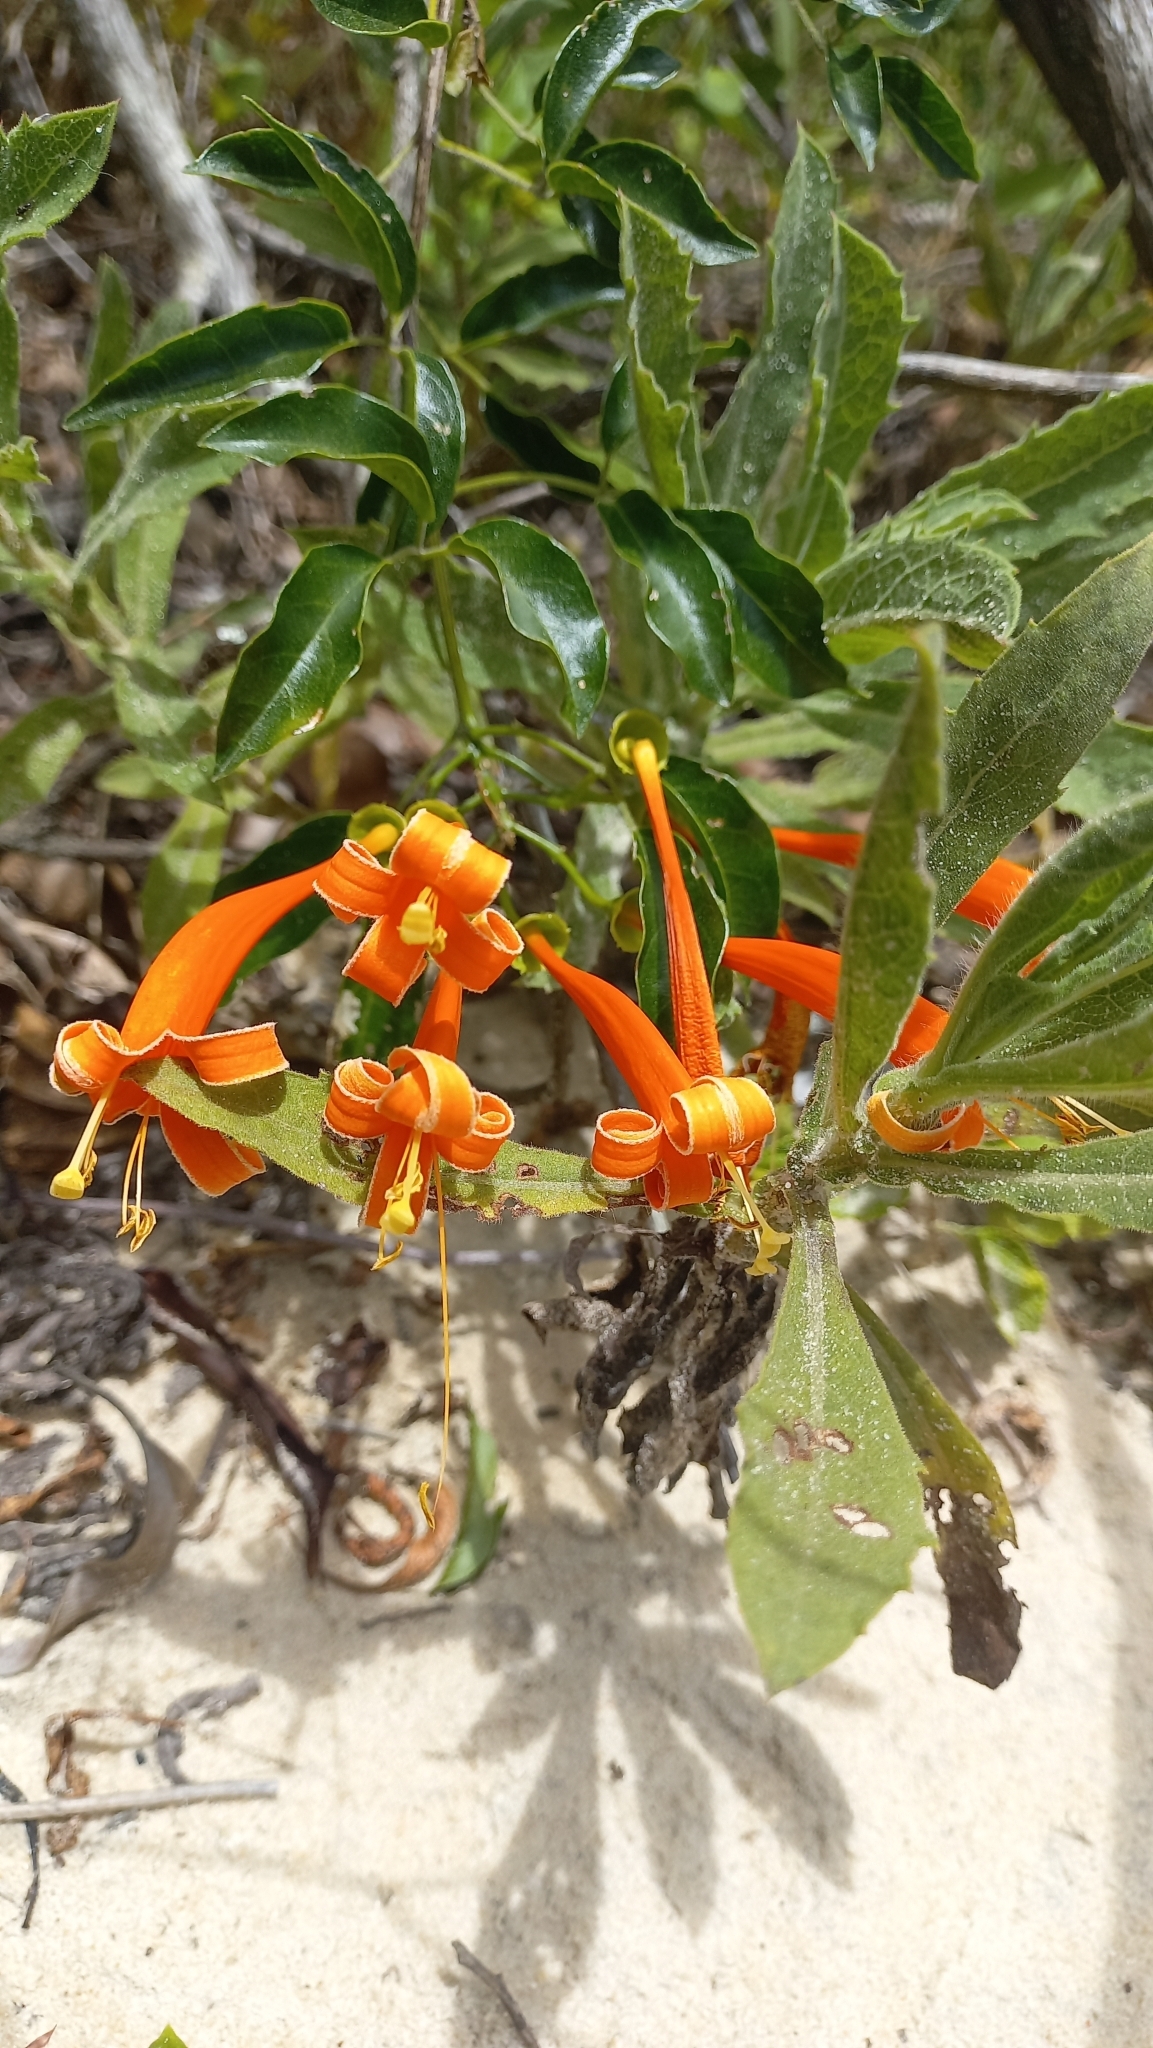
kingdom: Plantae
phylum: Tracheophyta
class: Magnoliopsida
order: Lamiales
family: Bignoniaceae
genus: Pyrostegia
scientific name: Pyrostegia venusta
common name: Flamevine
